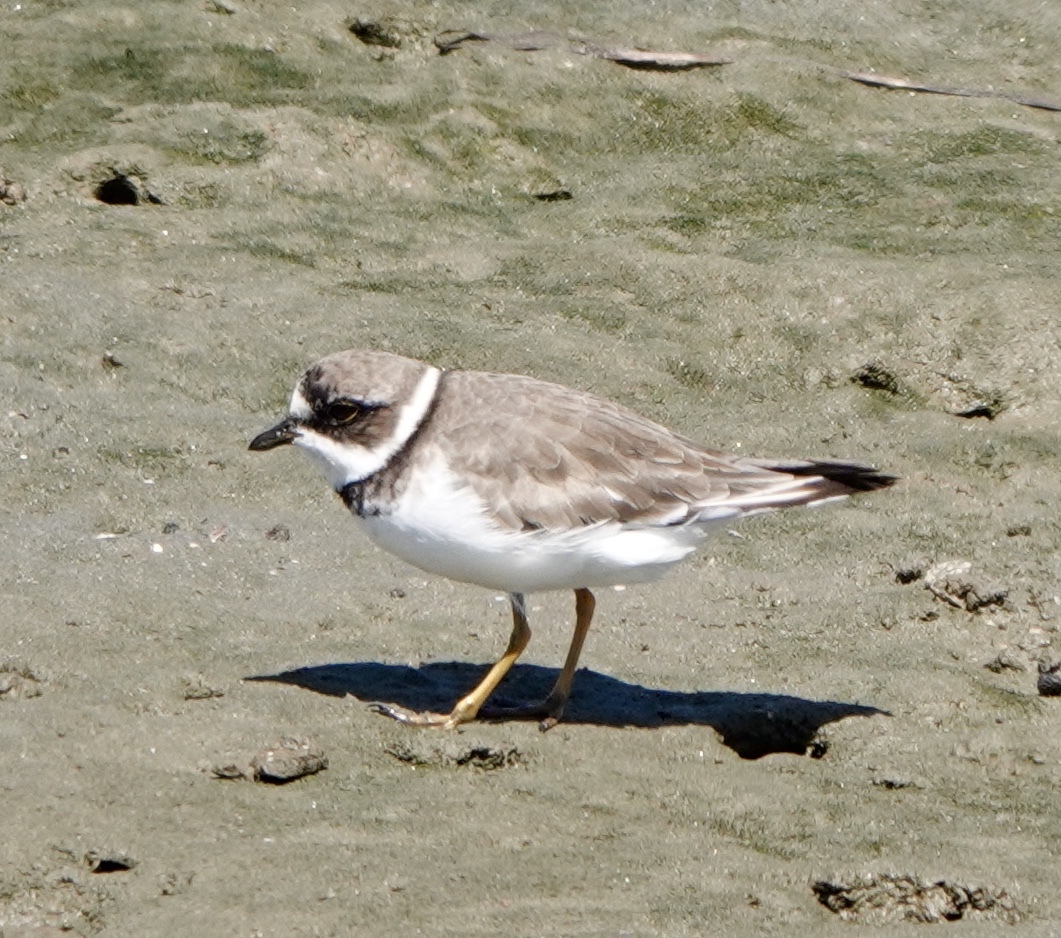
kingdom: Animalia
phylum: Chordata
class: Aves
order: Charadriiformes
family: Charadriidae
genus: Charadrius
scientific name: Charadrius semipalmatus
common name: Semipalmated plover
